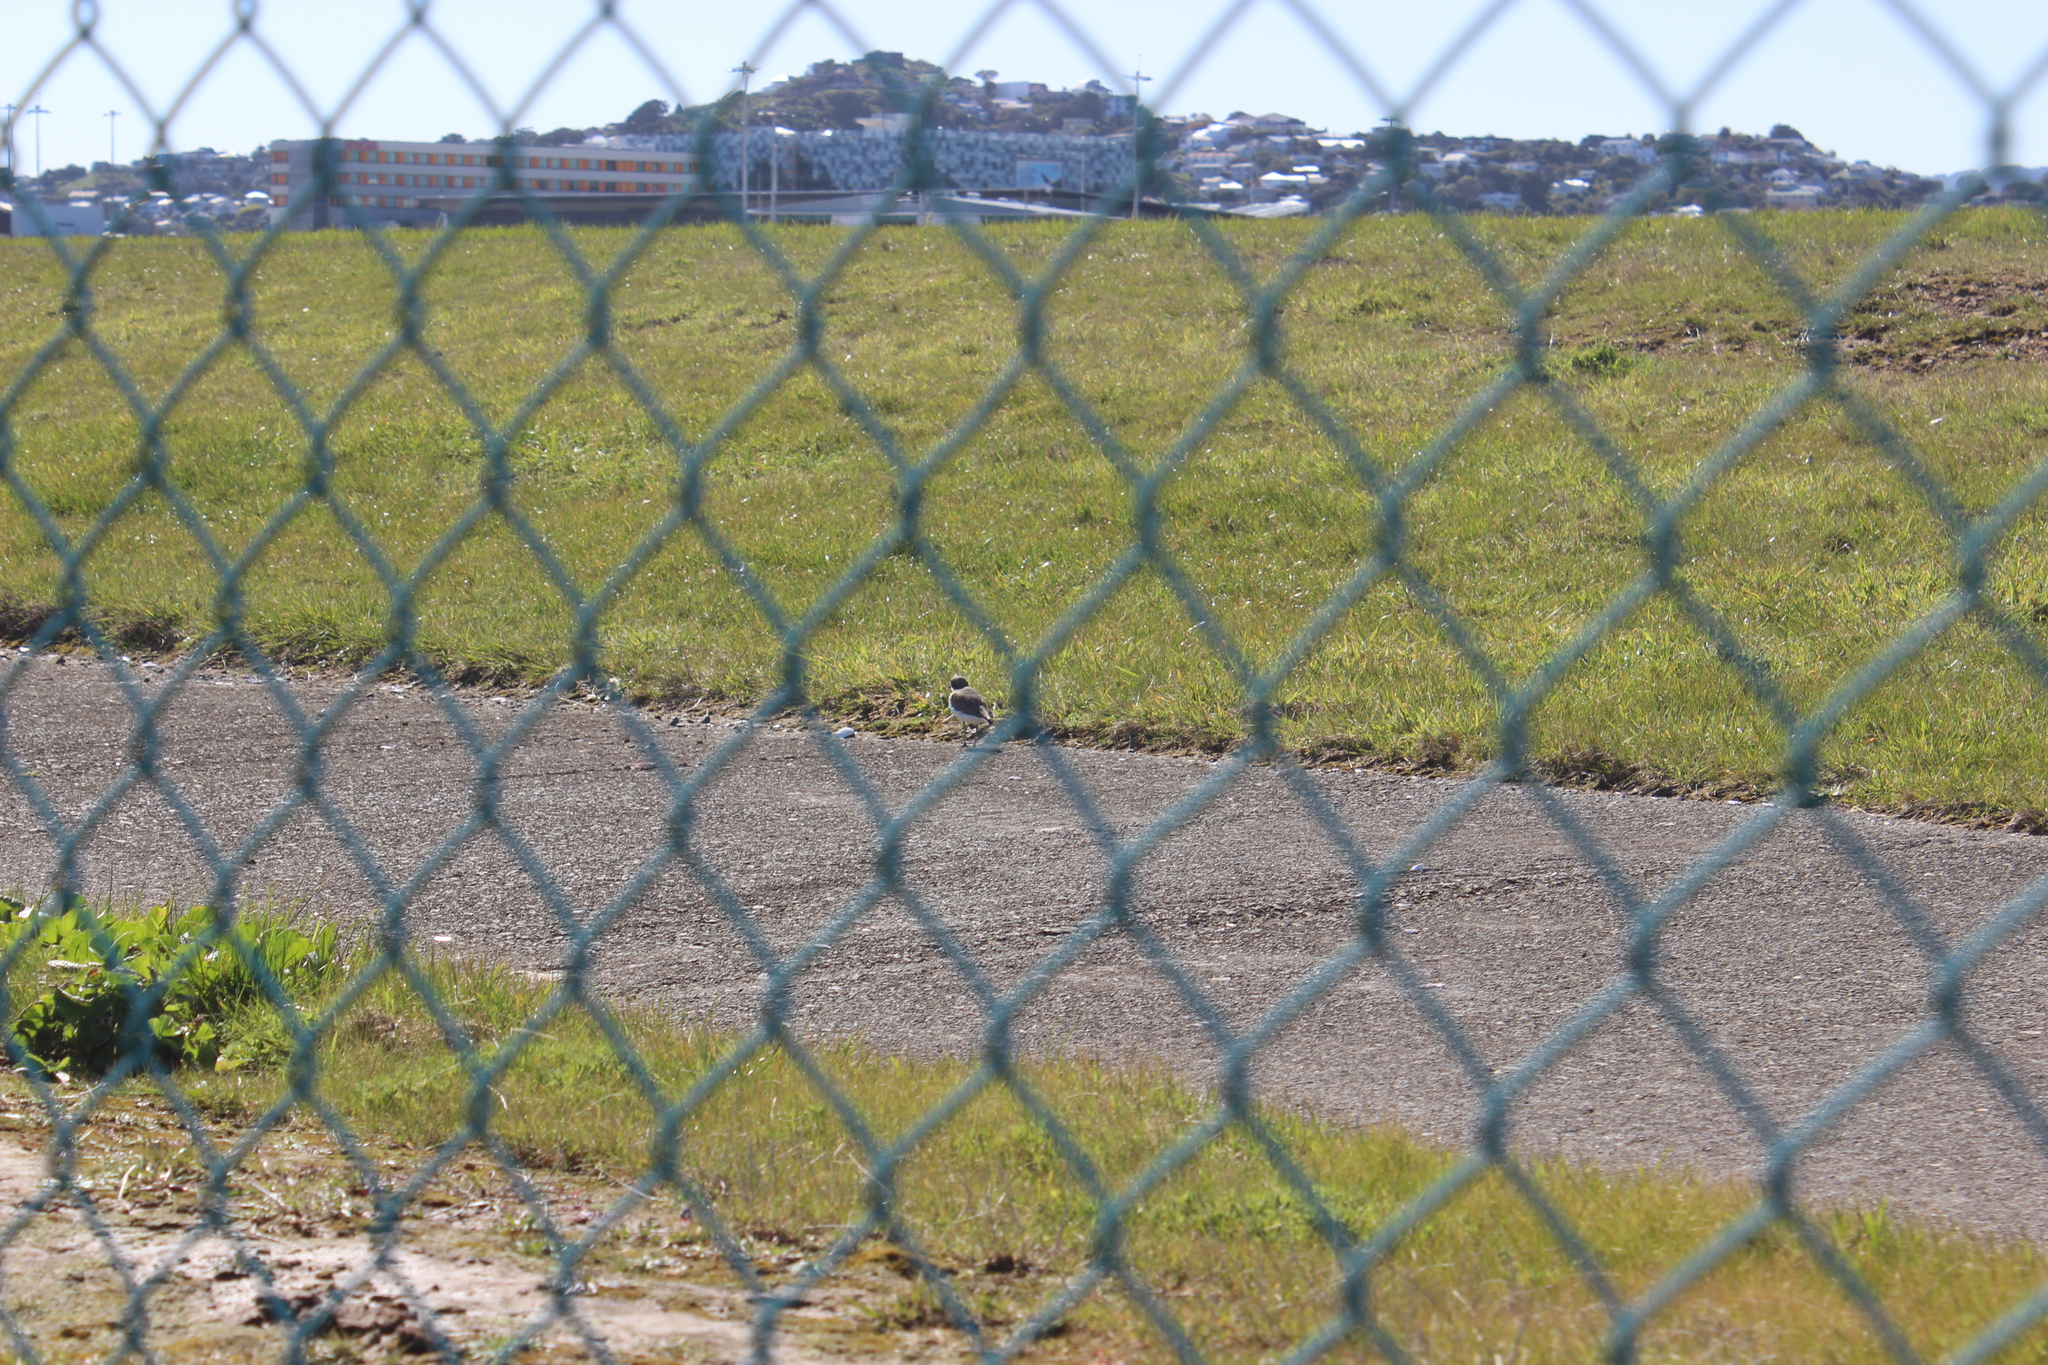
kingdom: Animalia
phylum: Chordata
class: Aves
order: Charadriiformes
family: Charadriidae
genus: Anarhynchus
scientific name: Anarhynchus
